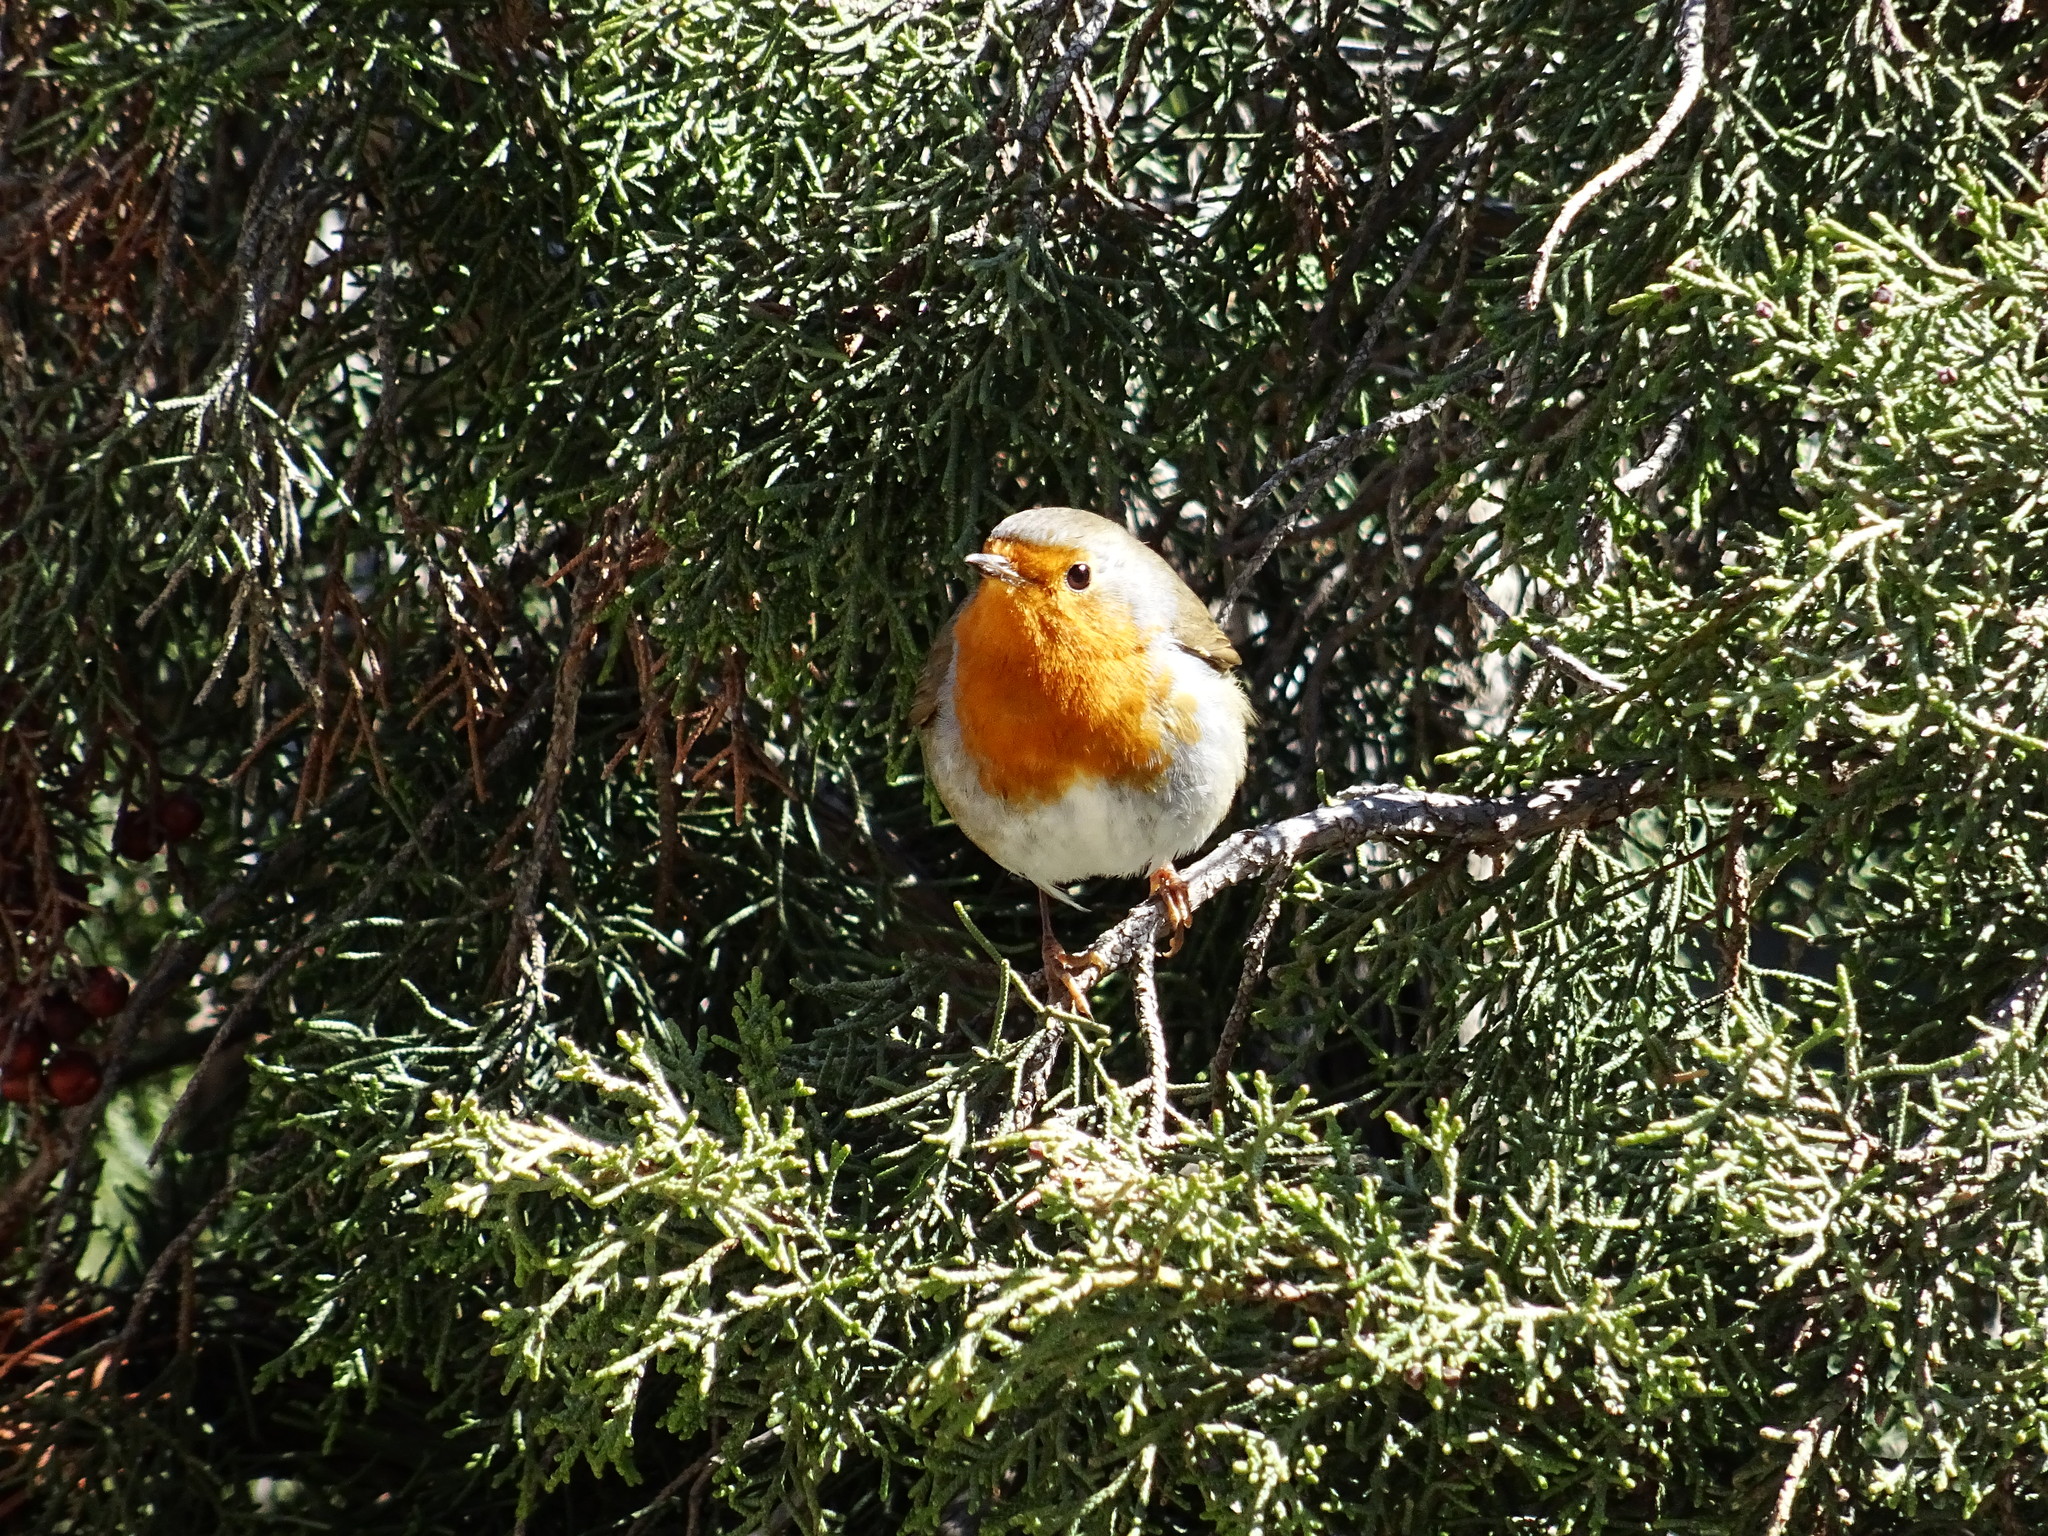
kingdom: Animalia
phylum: Chordata
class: Aves
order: Passeriformes
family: Muscicapidae
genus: Erithacus
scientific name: Erithacus rubecula
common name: European robin
